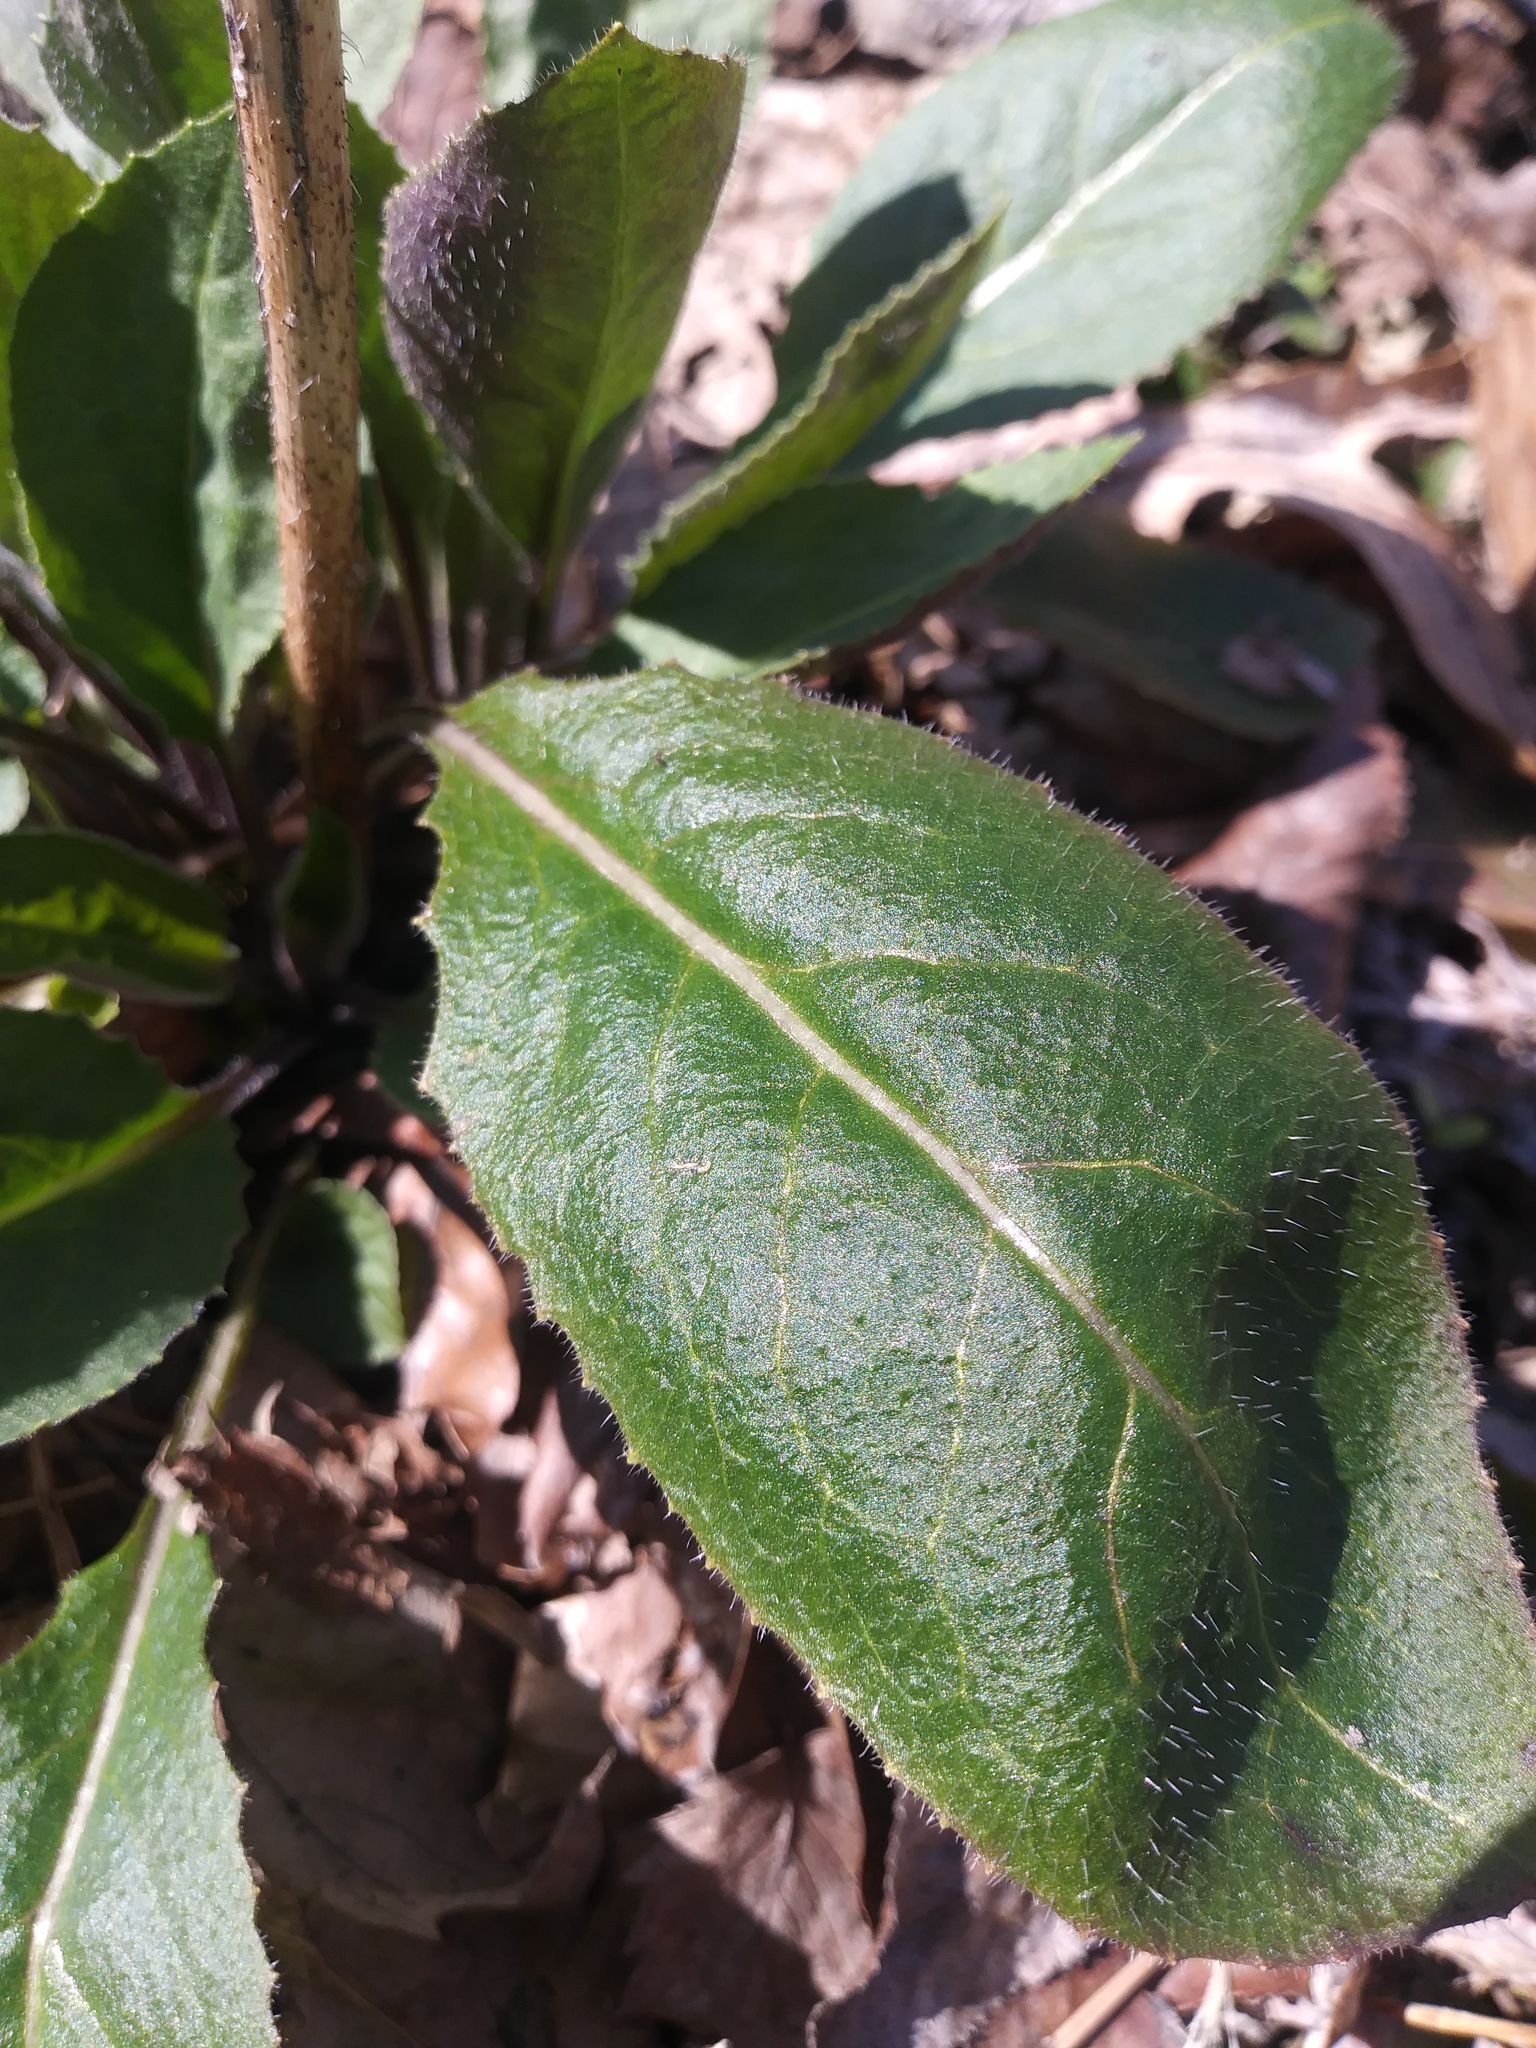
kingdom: Plantae
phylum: Tracheophyta
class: Magnoliopsida
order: Brassicales
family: Brassicaceae
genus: Hesperis
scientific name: Hesperis matronalis
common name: Dame's-violet
